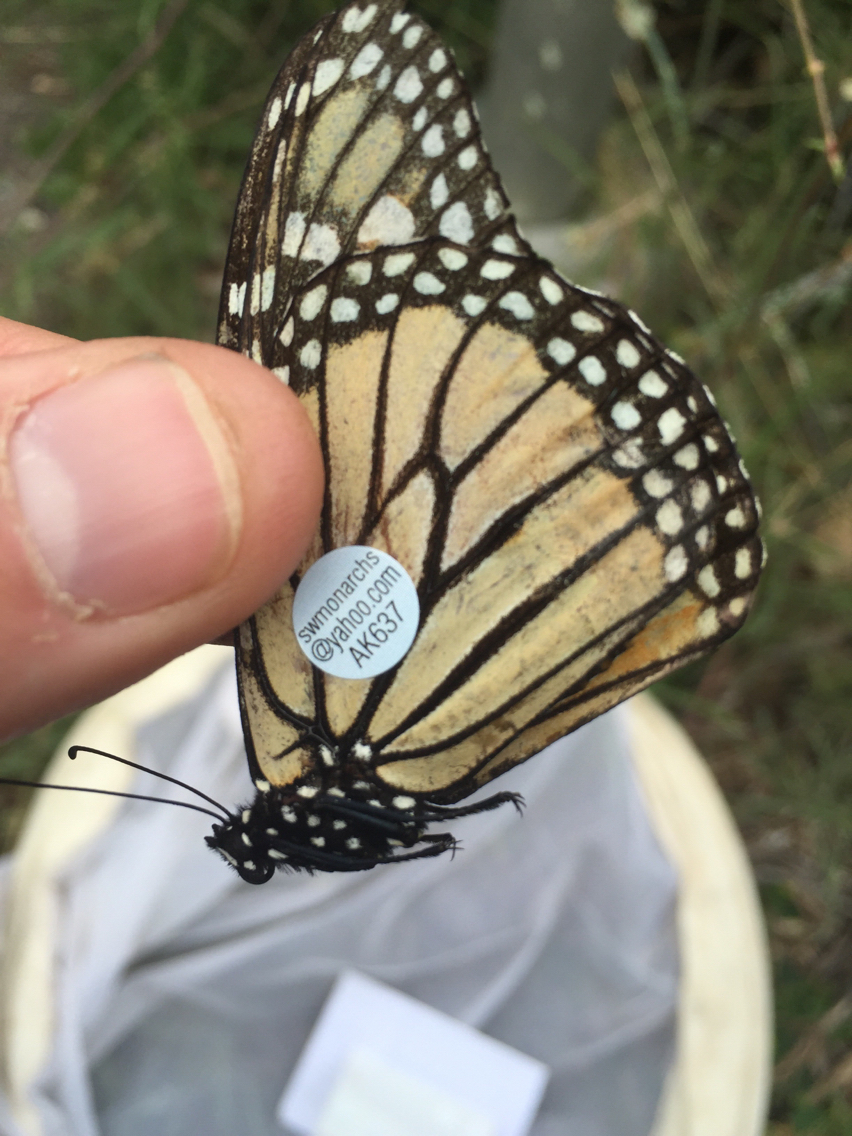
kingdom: Animalia
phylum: Arthropoda
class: Insecta
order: Lepidoptera
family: Nymphalidae
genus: Danaus
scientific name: Danaus plexippus
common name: Monarch
